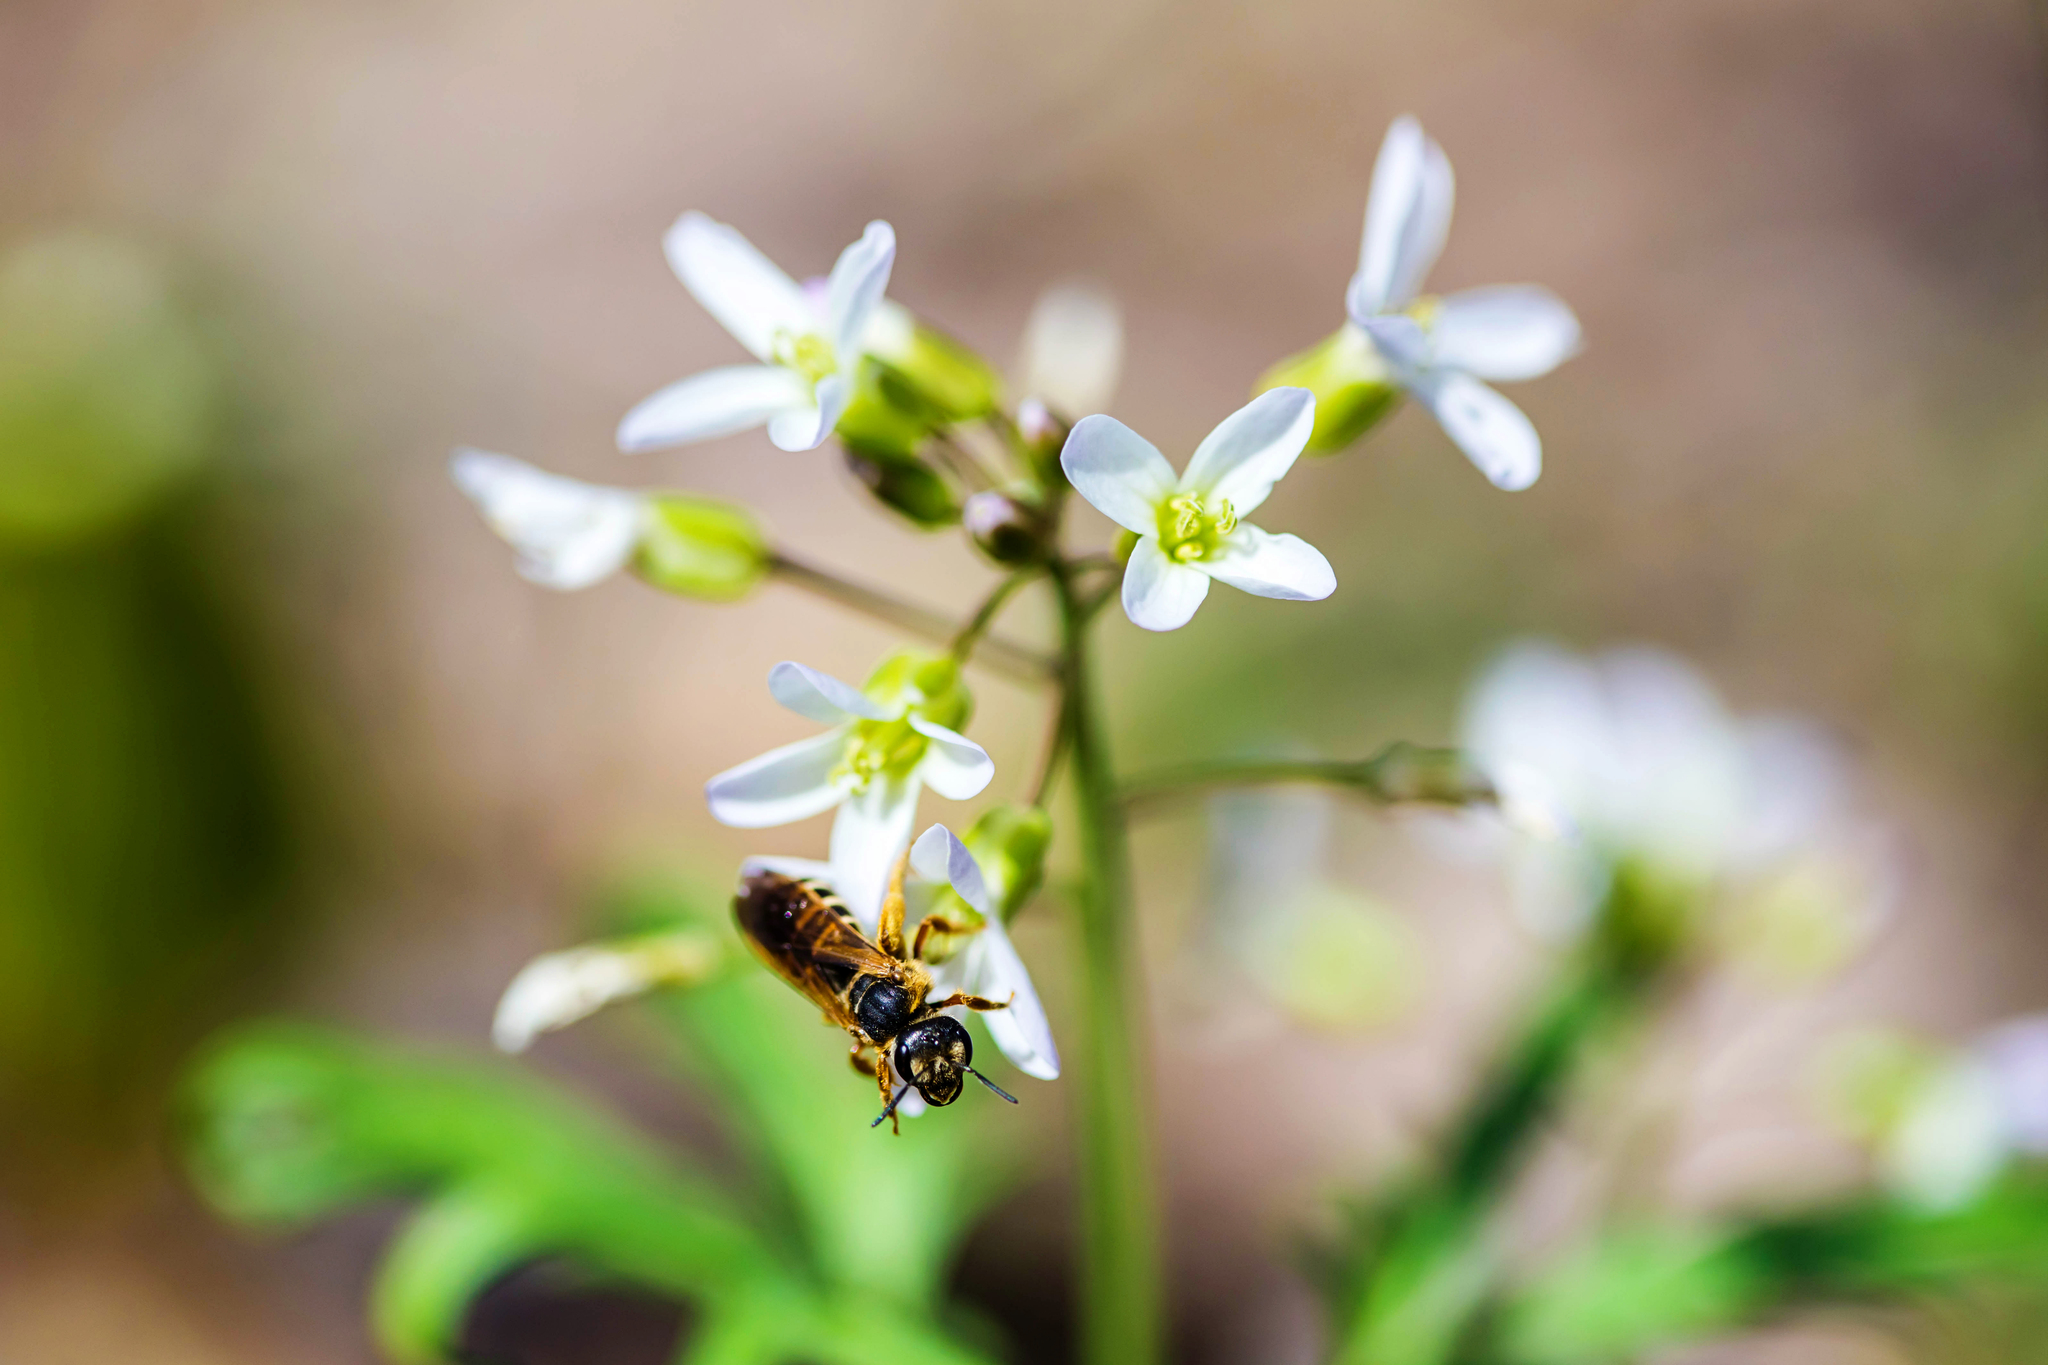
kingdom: Animalia
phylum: Arthropoda
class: Insecta
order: Hymenoptera
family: Halictidae
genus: Halictus
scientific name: Halictus parallelus
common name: Parallel-striped sweat bee
